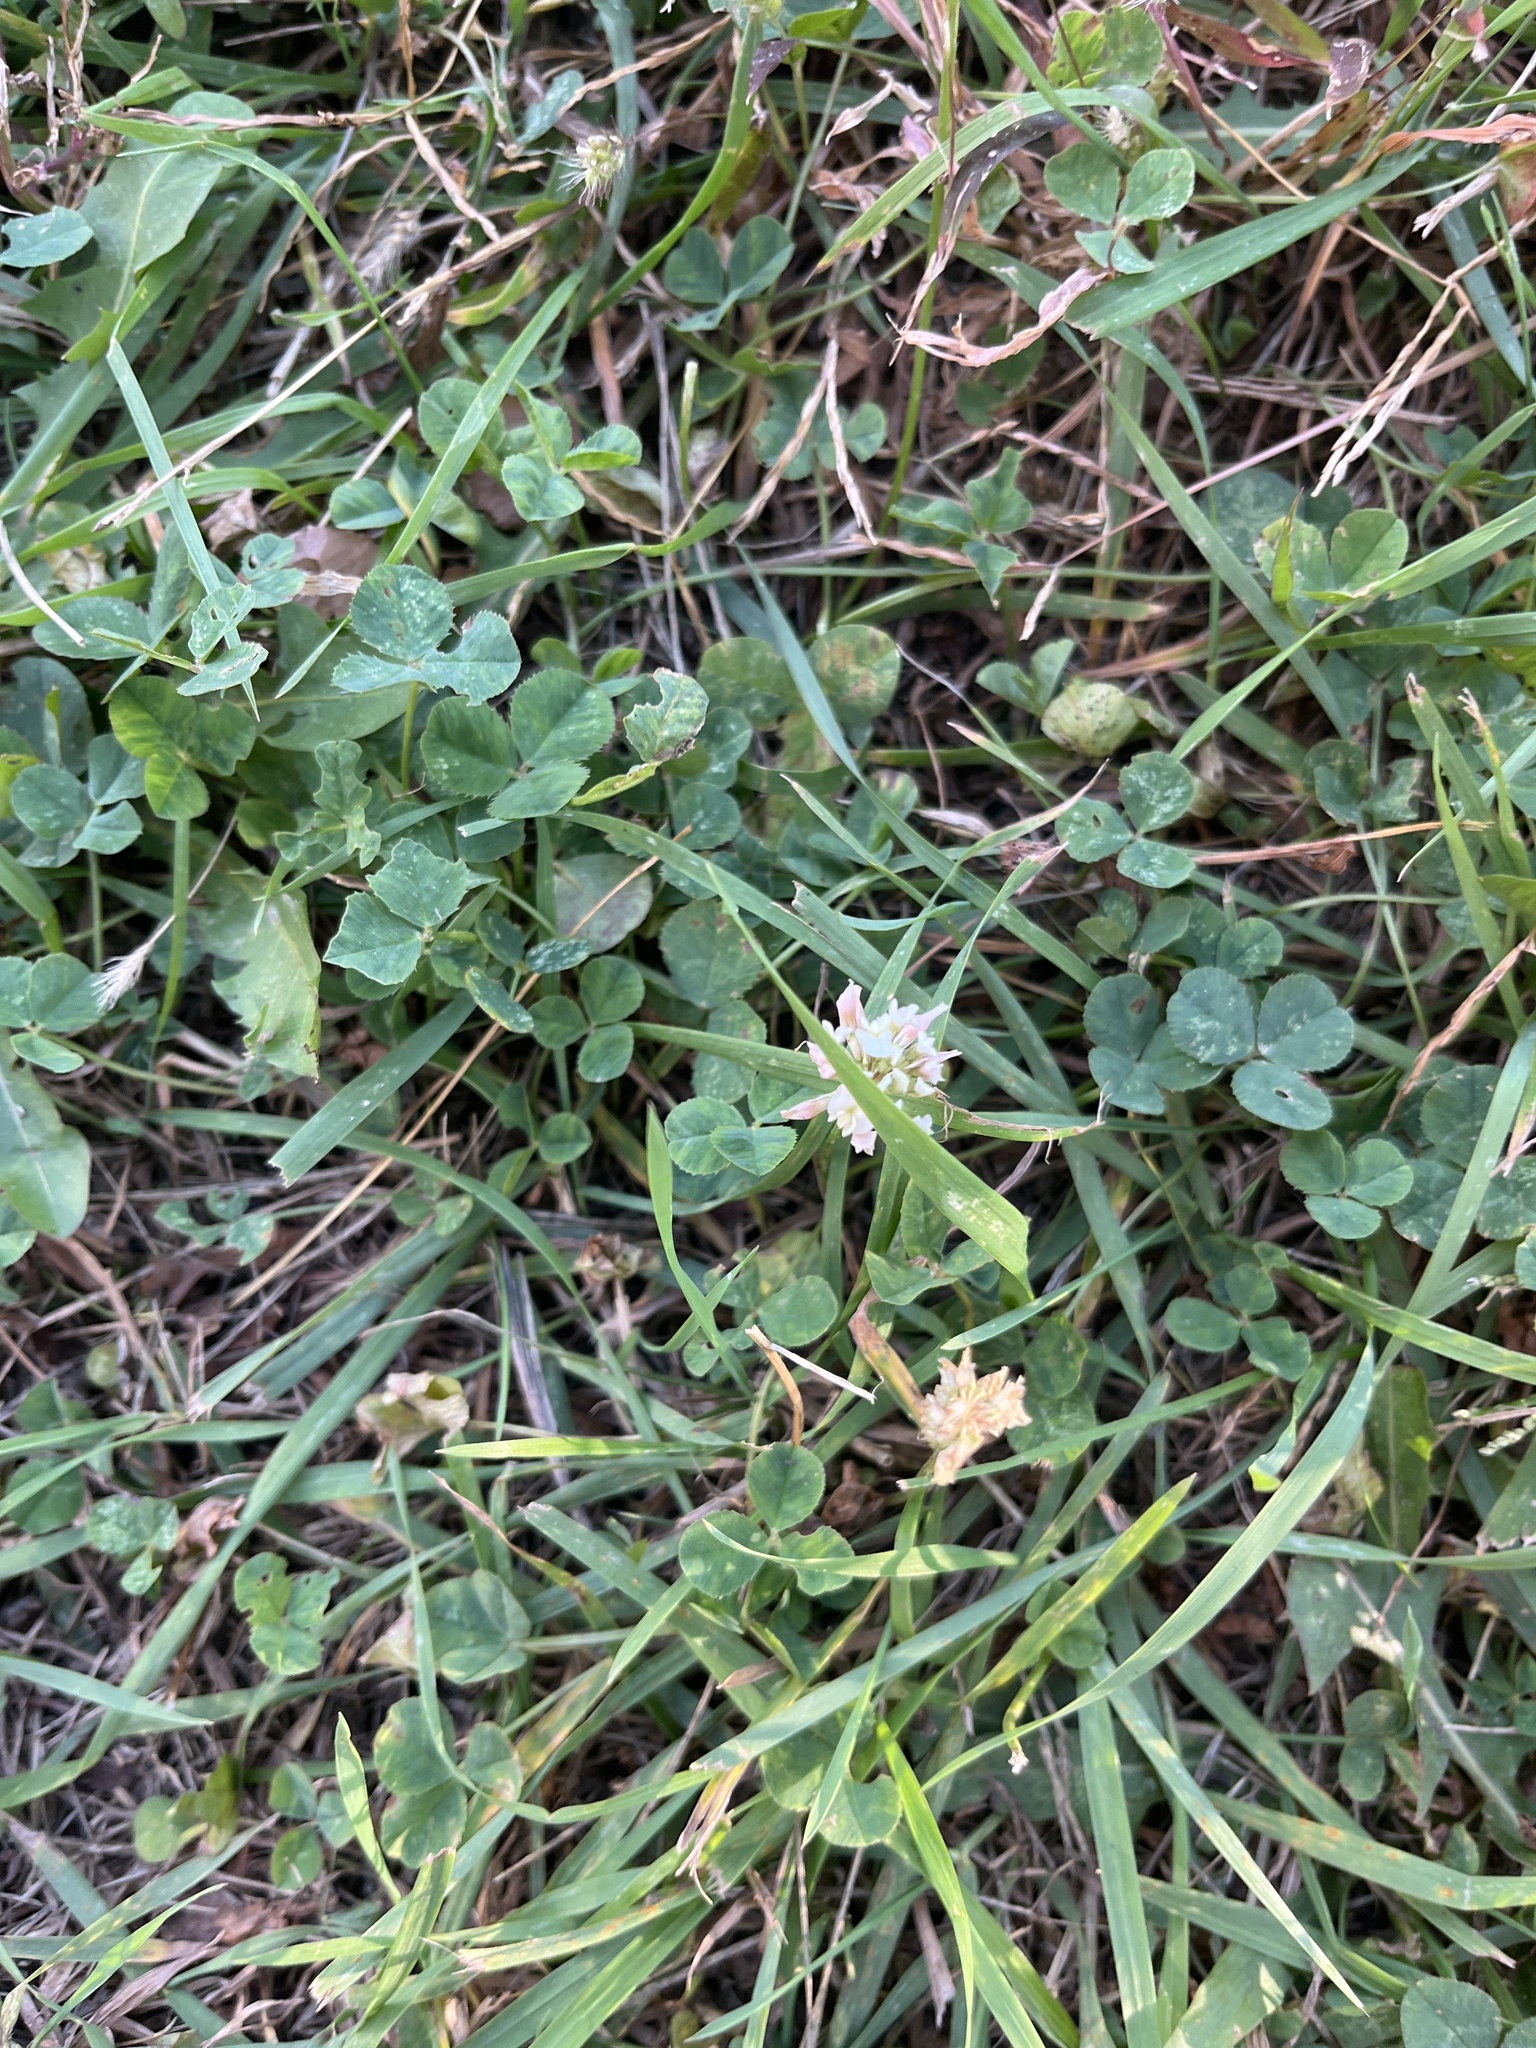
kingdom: Plantae
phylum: Tracheophyta
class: Magnoliopsida
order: Fabales
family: Fabaceae
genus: Trifolium
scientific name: Trifolium repens
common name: White clover
